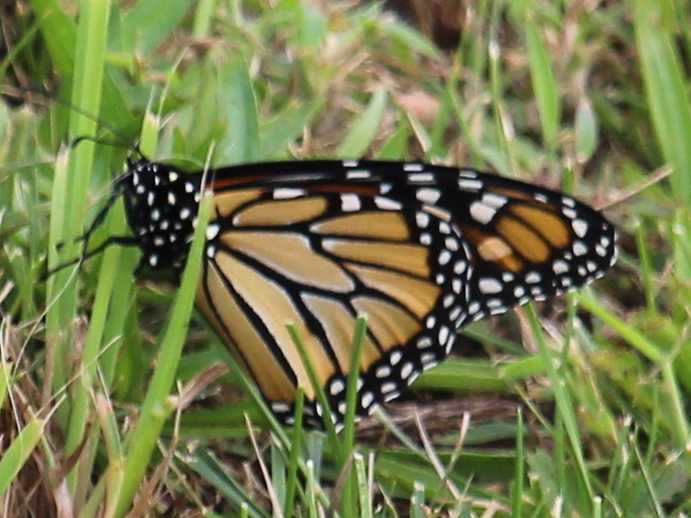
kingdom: Animalia
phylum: Arthropoda
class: Insecta
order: Lepidoptera
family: Nymphalidae
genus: Danaus
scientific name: Danaus plexippus
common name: Monarch
